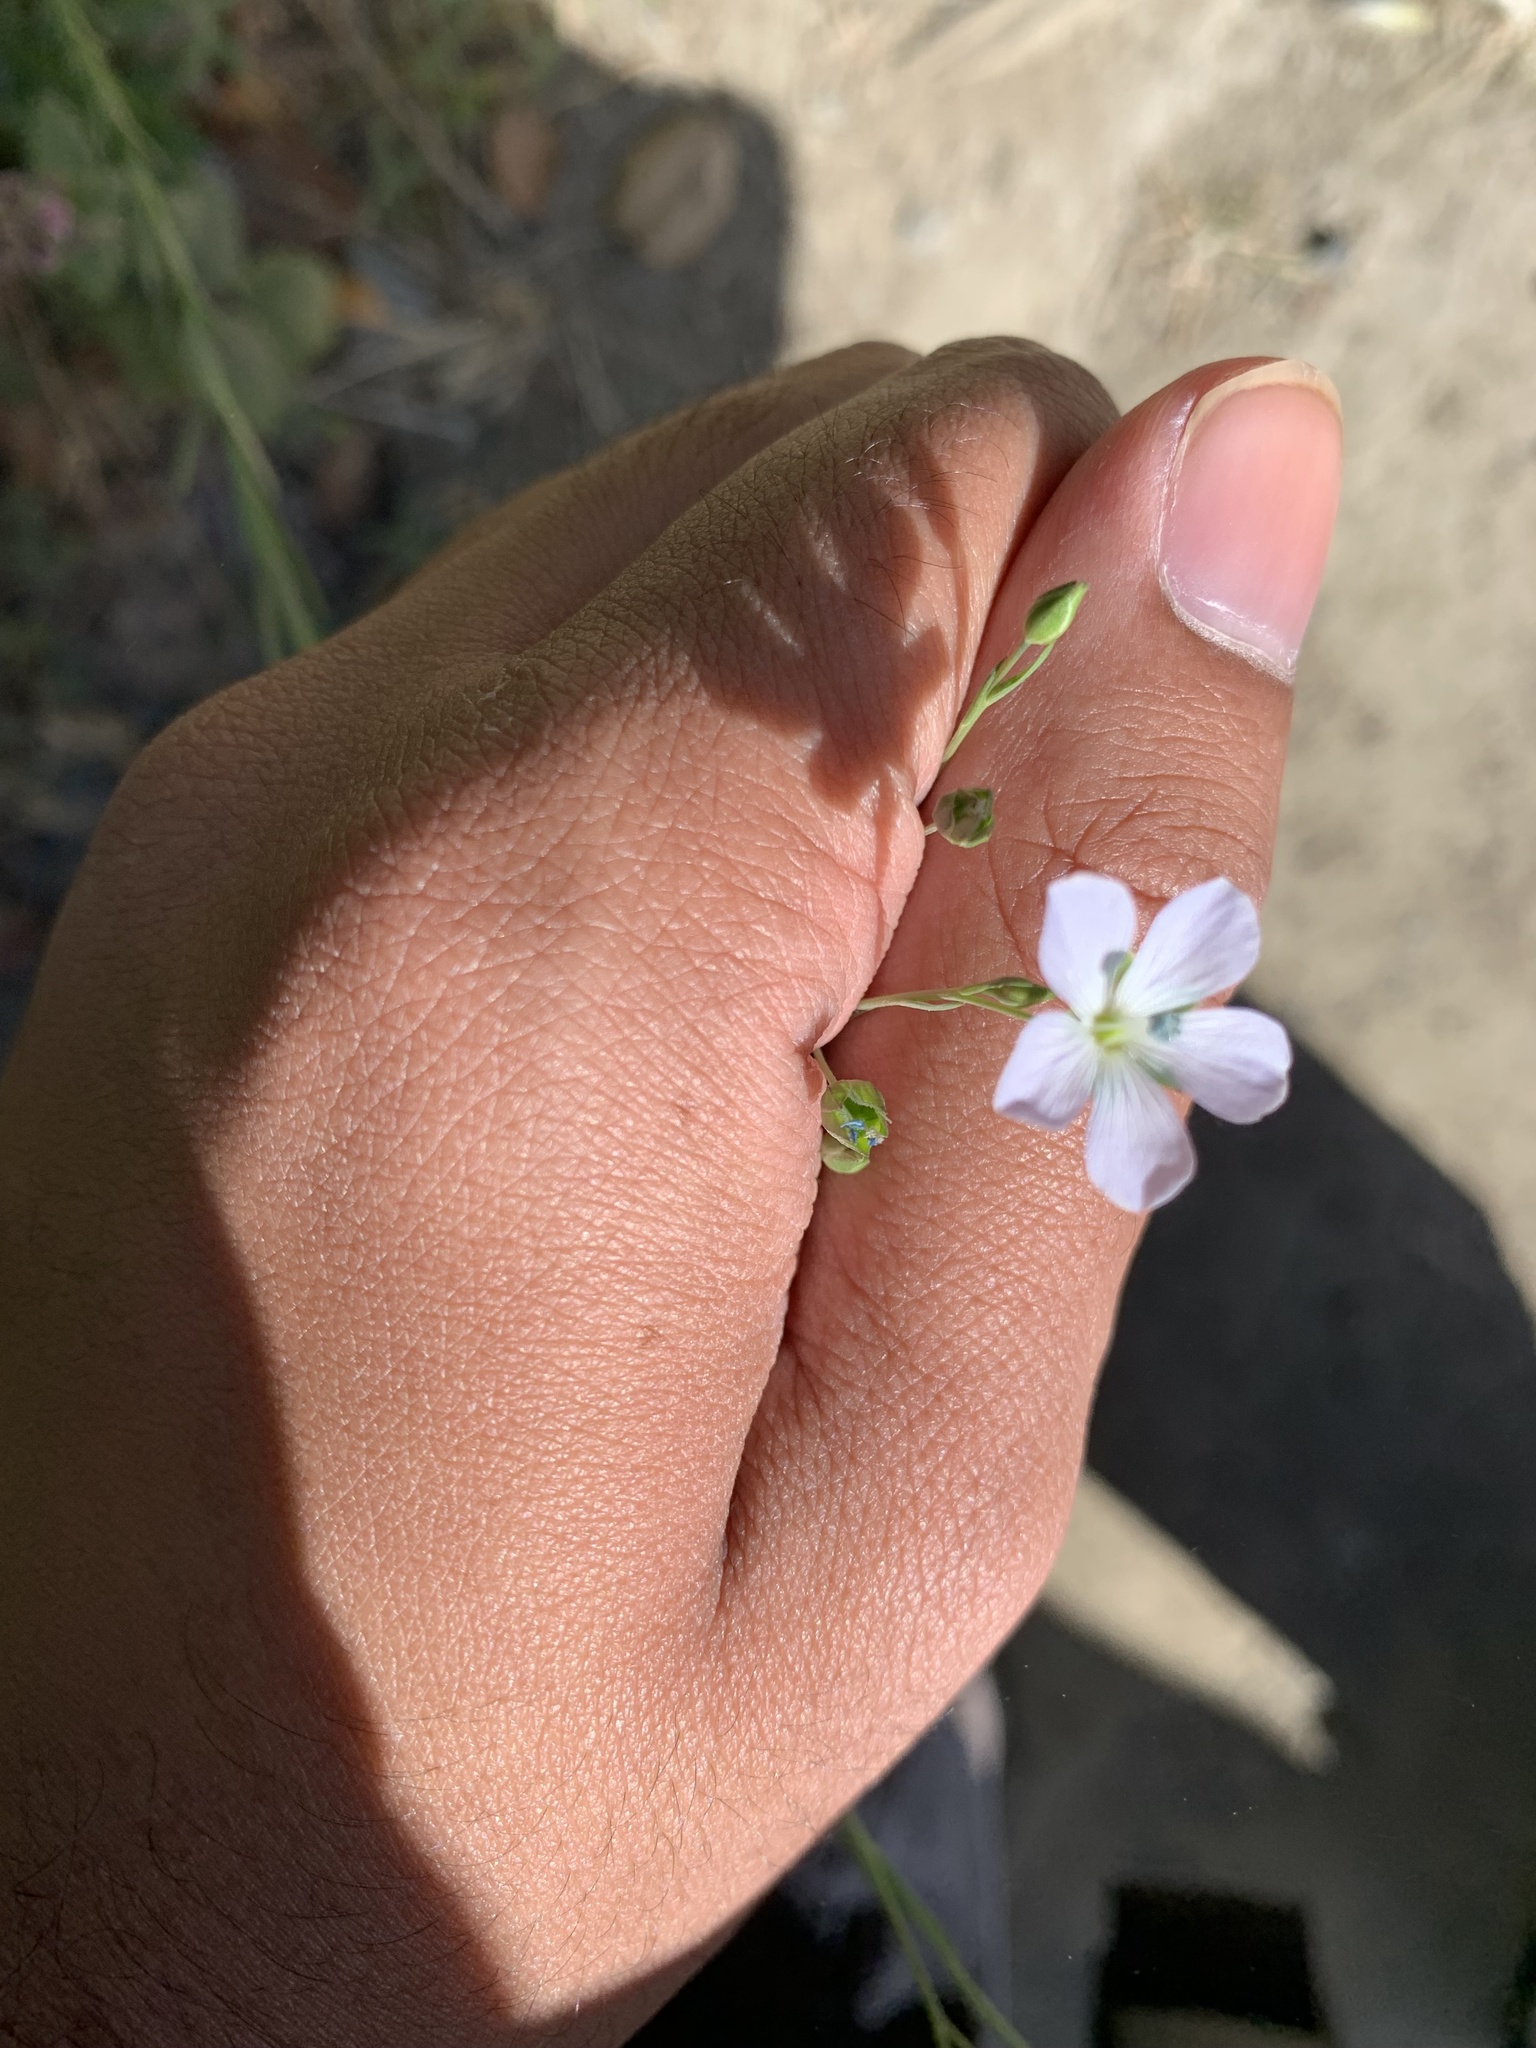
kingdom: Plantae
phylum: Tracheophyta
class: Magnoliopsida
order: Malpighiales
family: Linaceae
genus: Linum
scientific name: Linum bienne
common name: Pale flax
